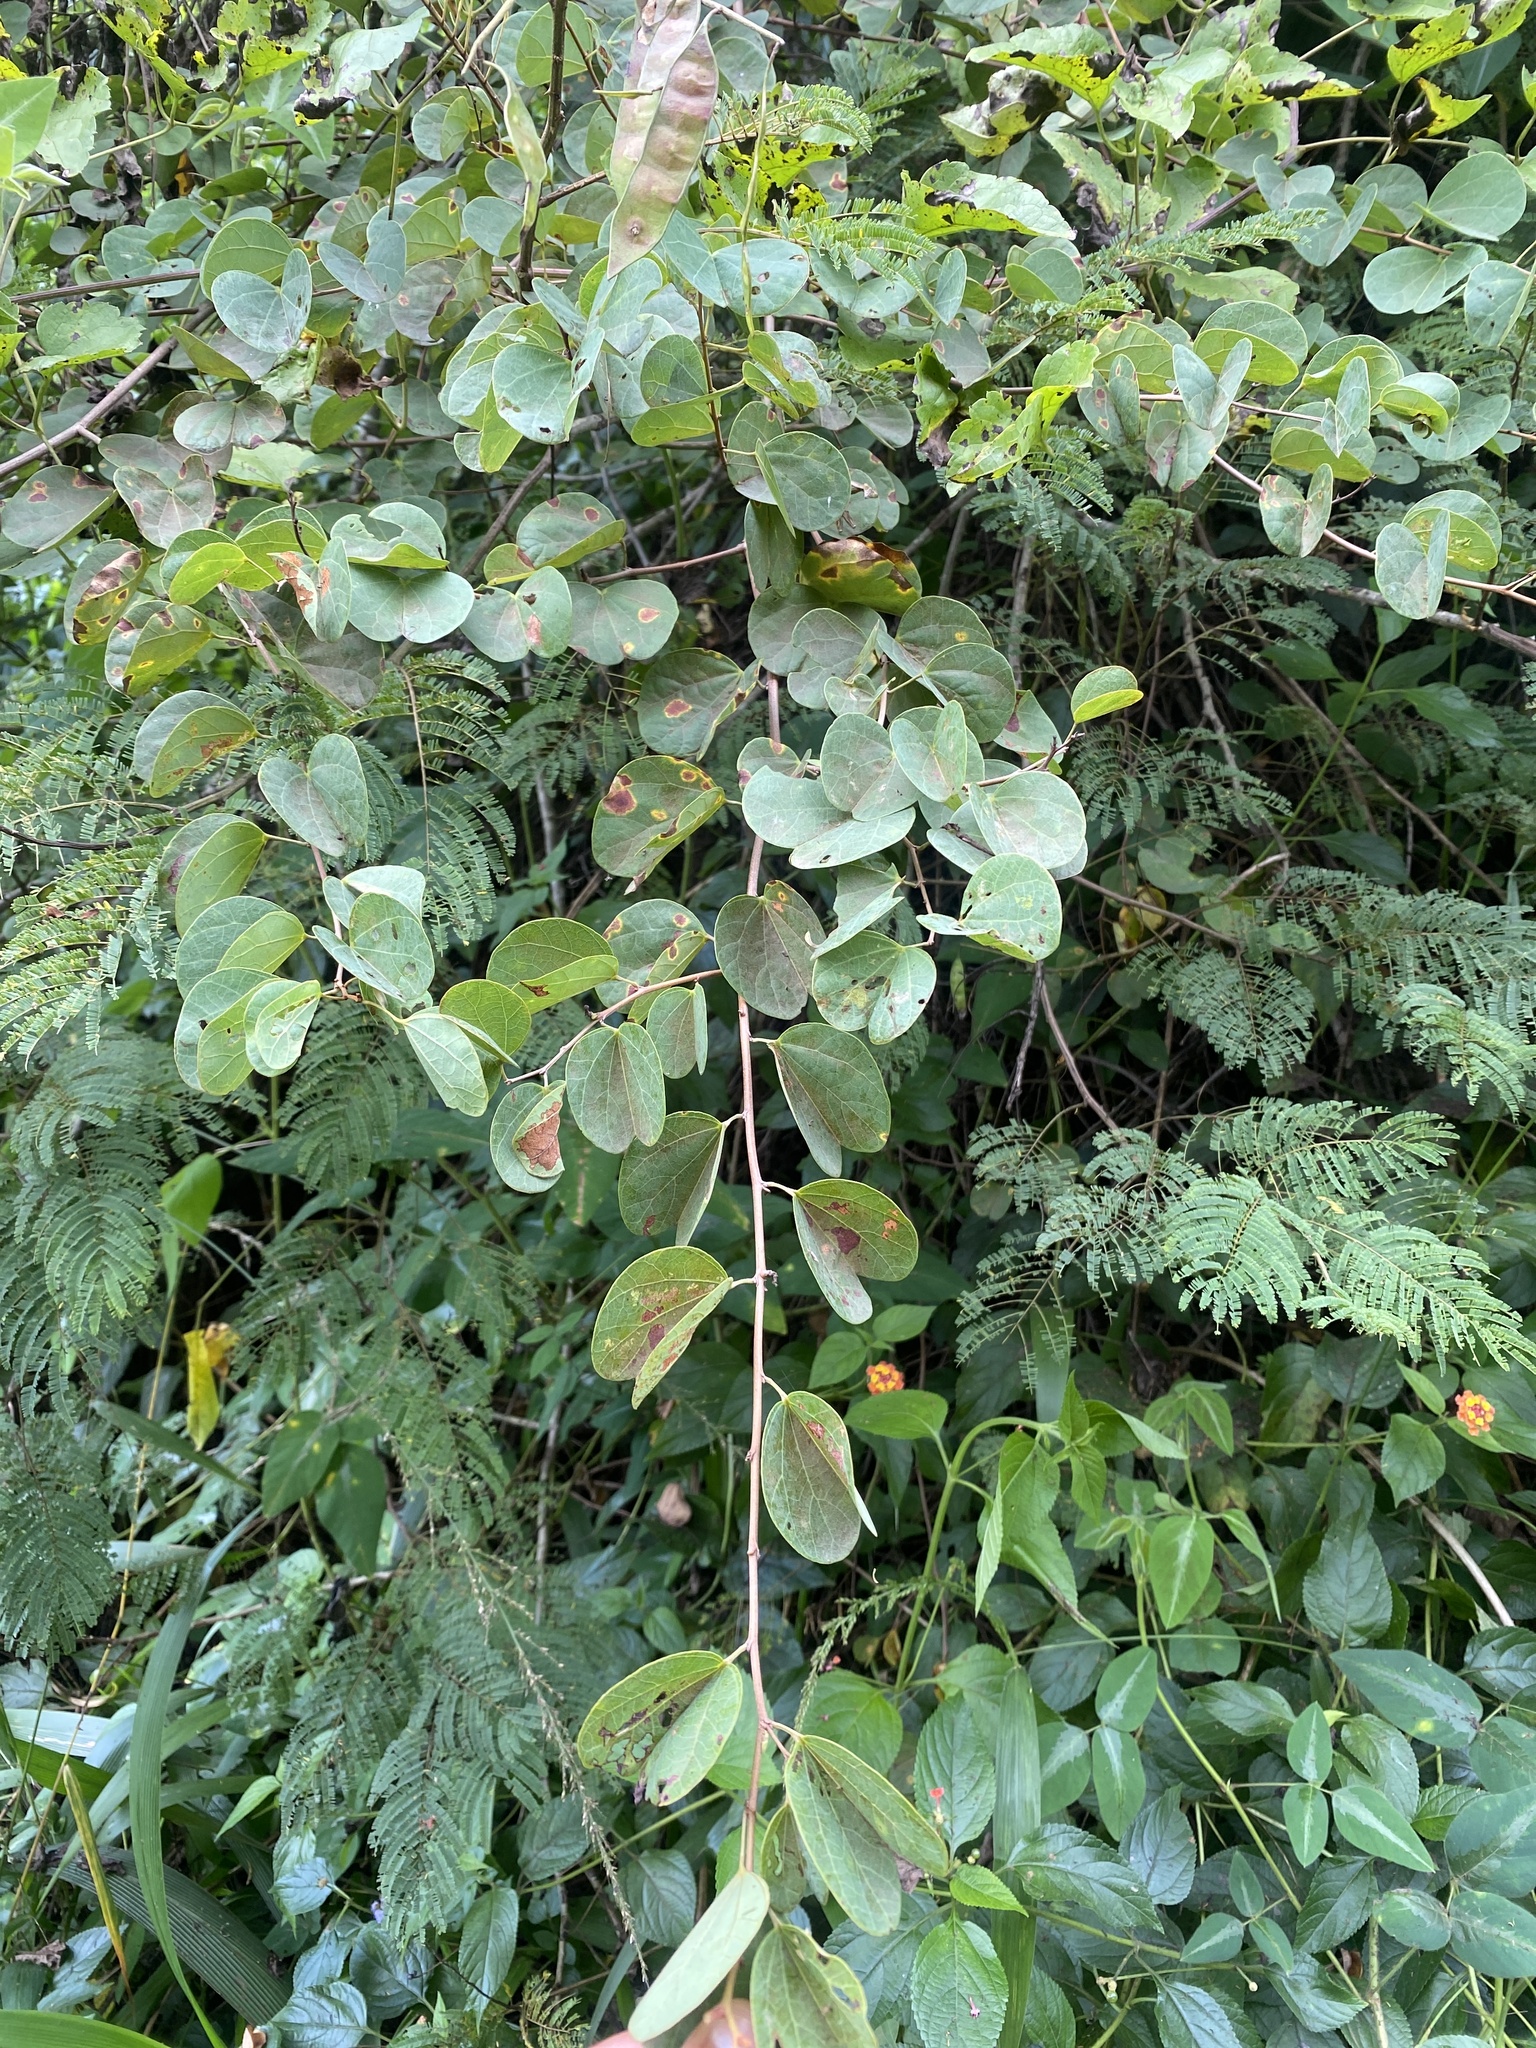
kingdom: Plantae
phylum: Tracheophyta
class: Magnoliopsida
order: Fabales
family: Fabaceae
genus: Bauhinia
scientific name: Bauhinia galpinii
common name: African plume
